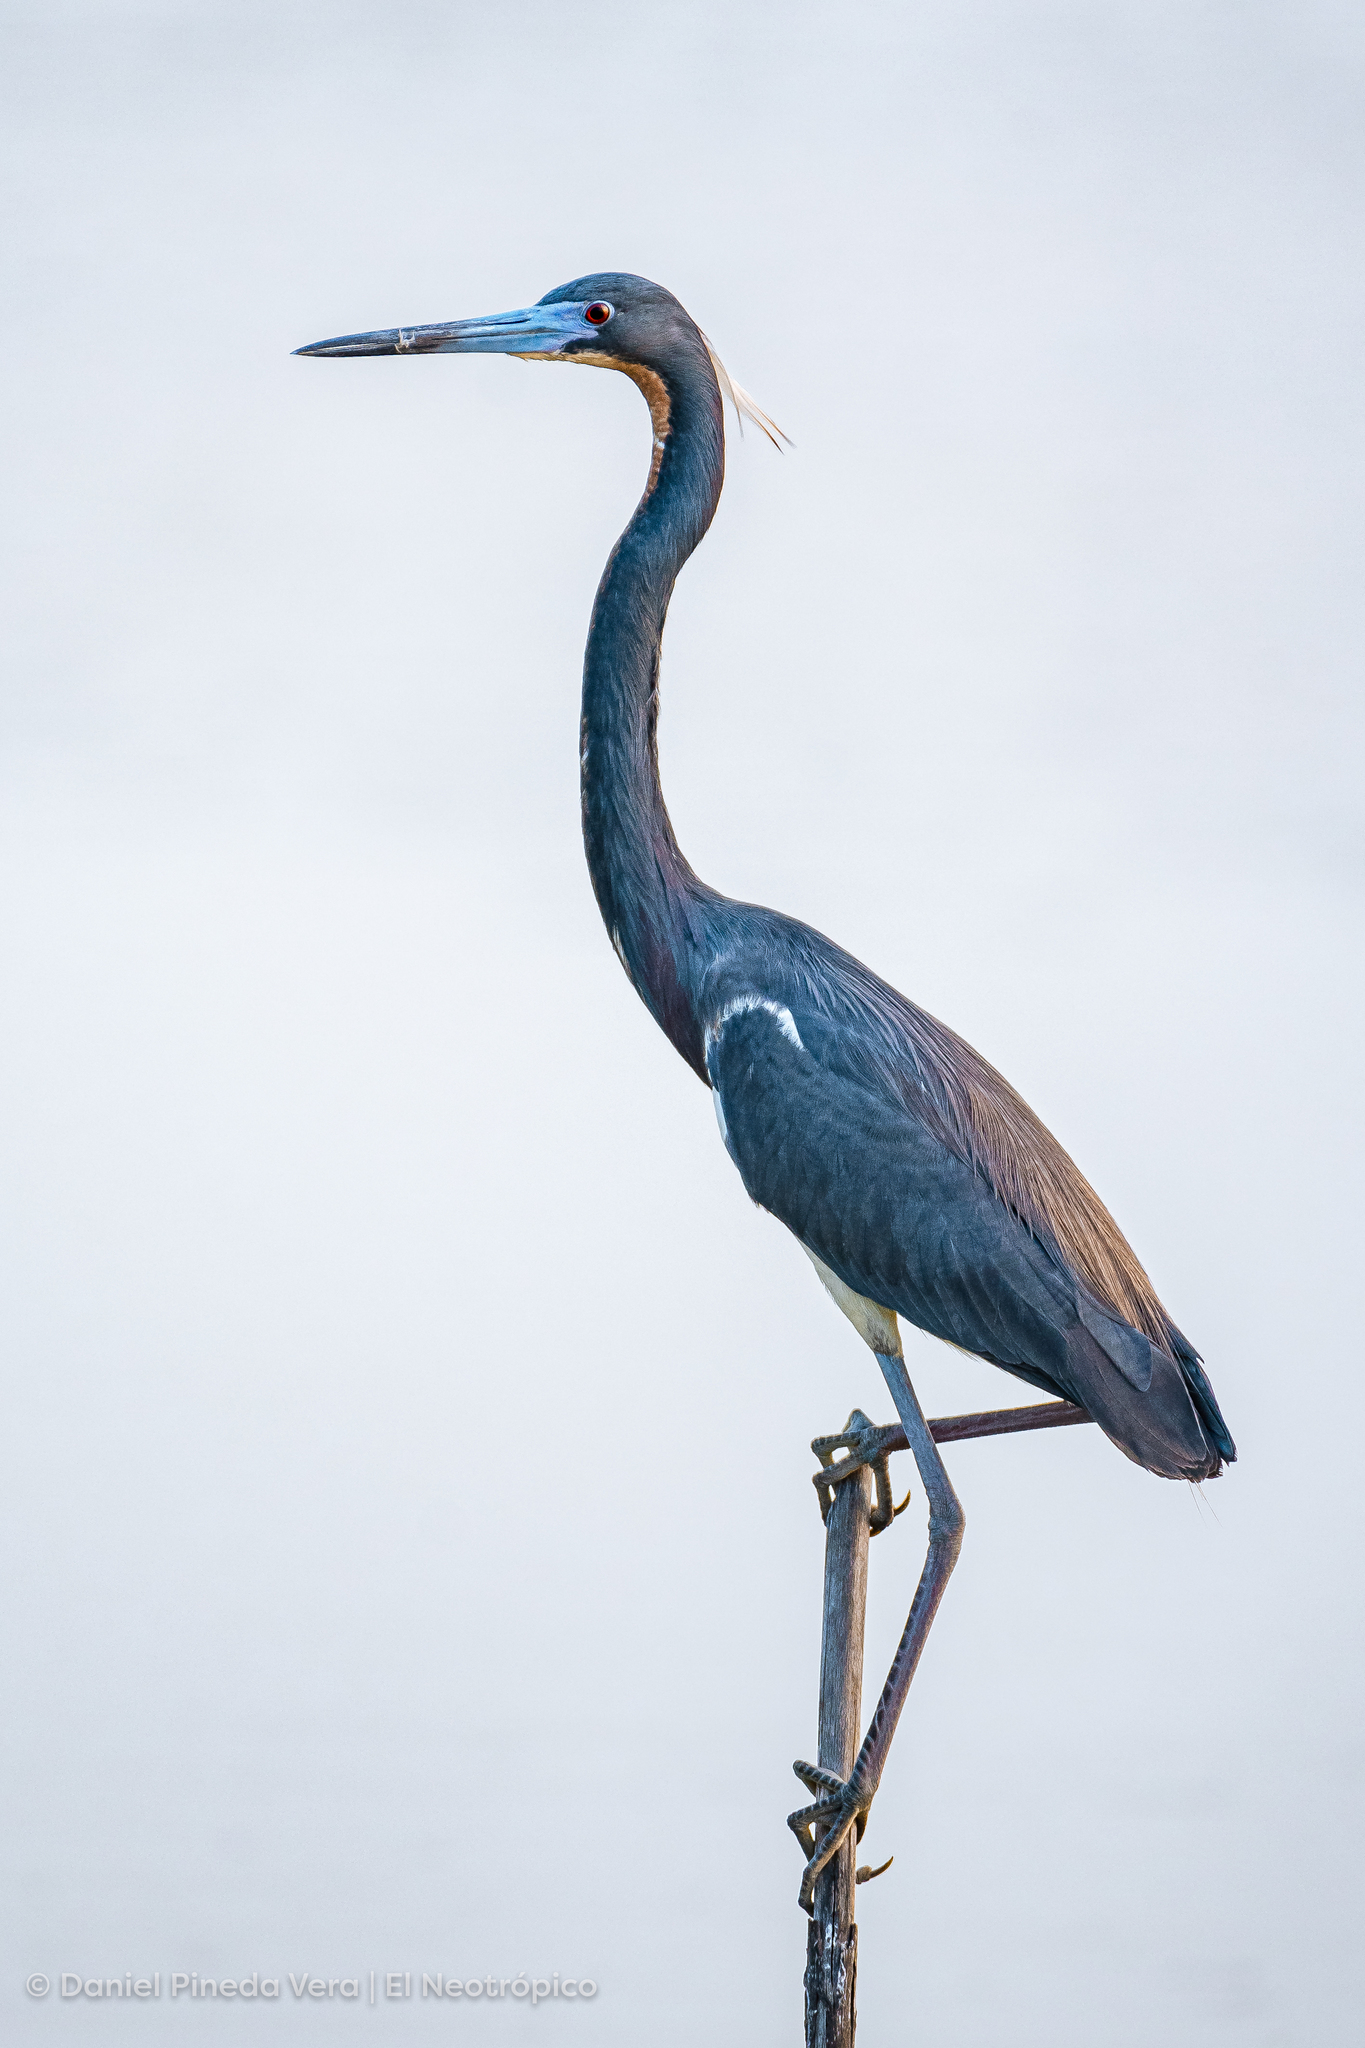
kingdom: Animalia
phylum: Chordata
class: Aves
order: Pelecaniformes
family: Ardeidae
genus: Egretta
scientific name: Egretta tricolor
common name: Tricolored heron
